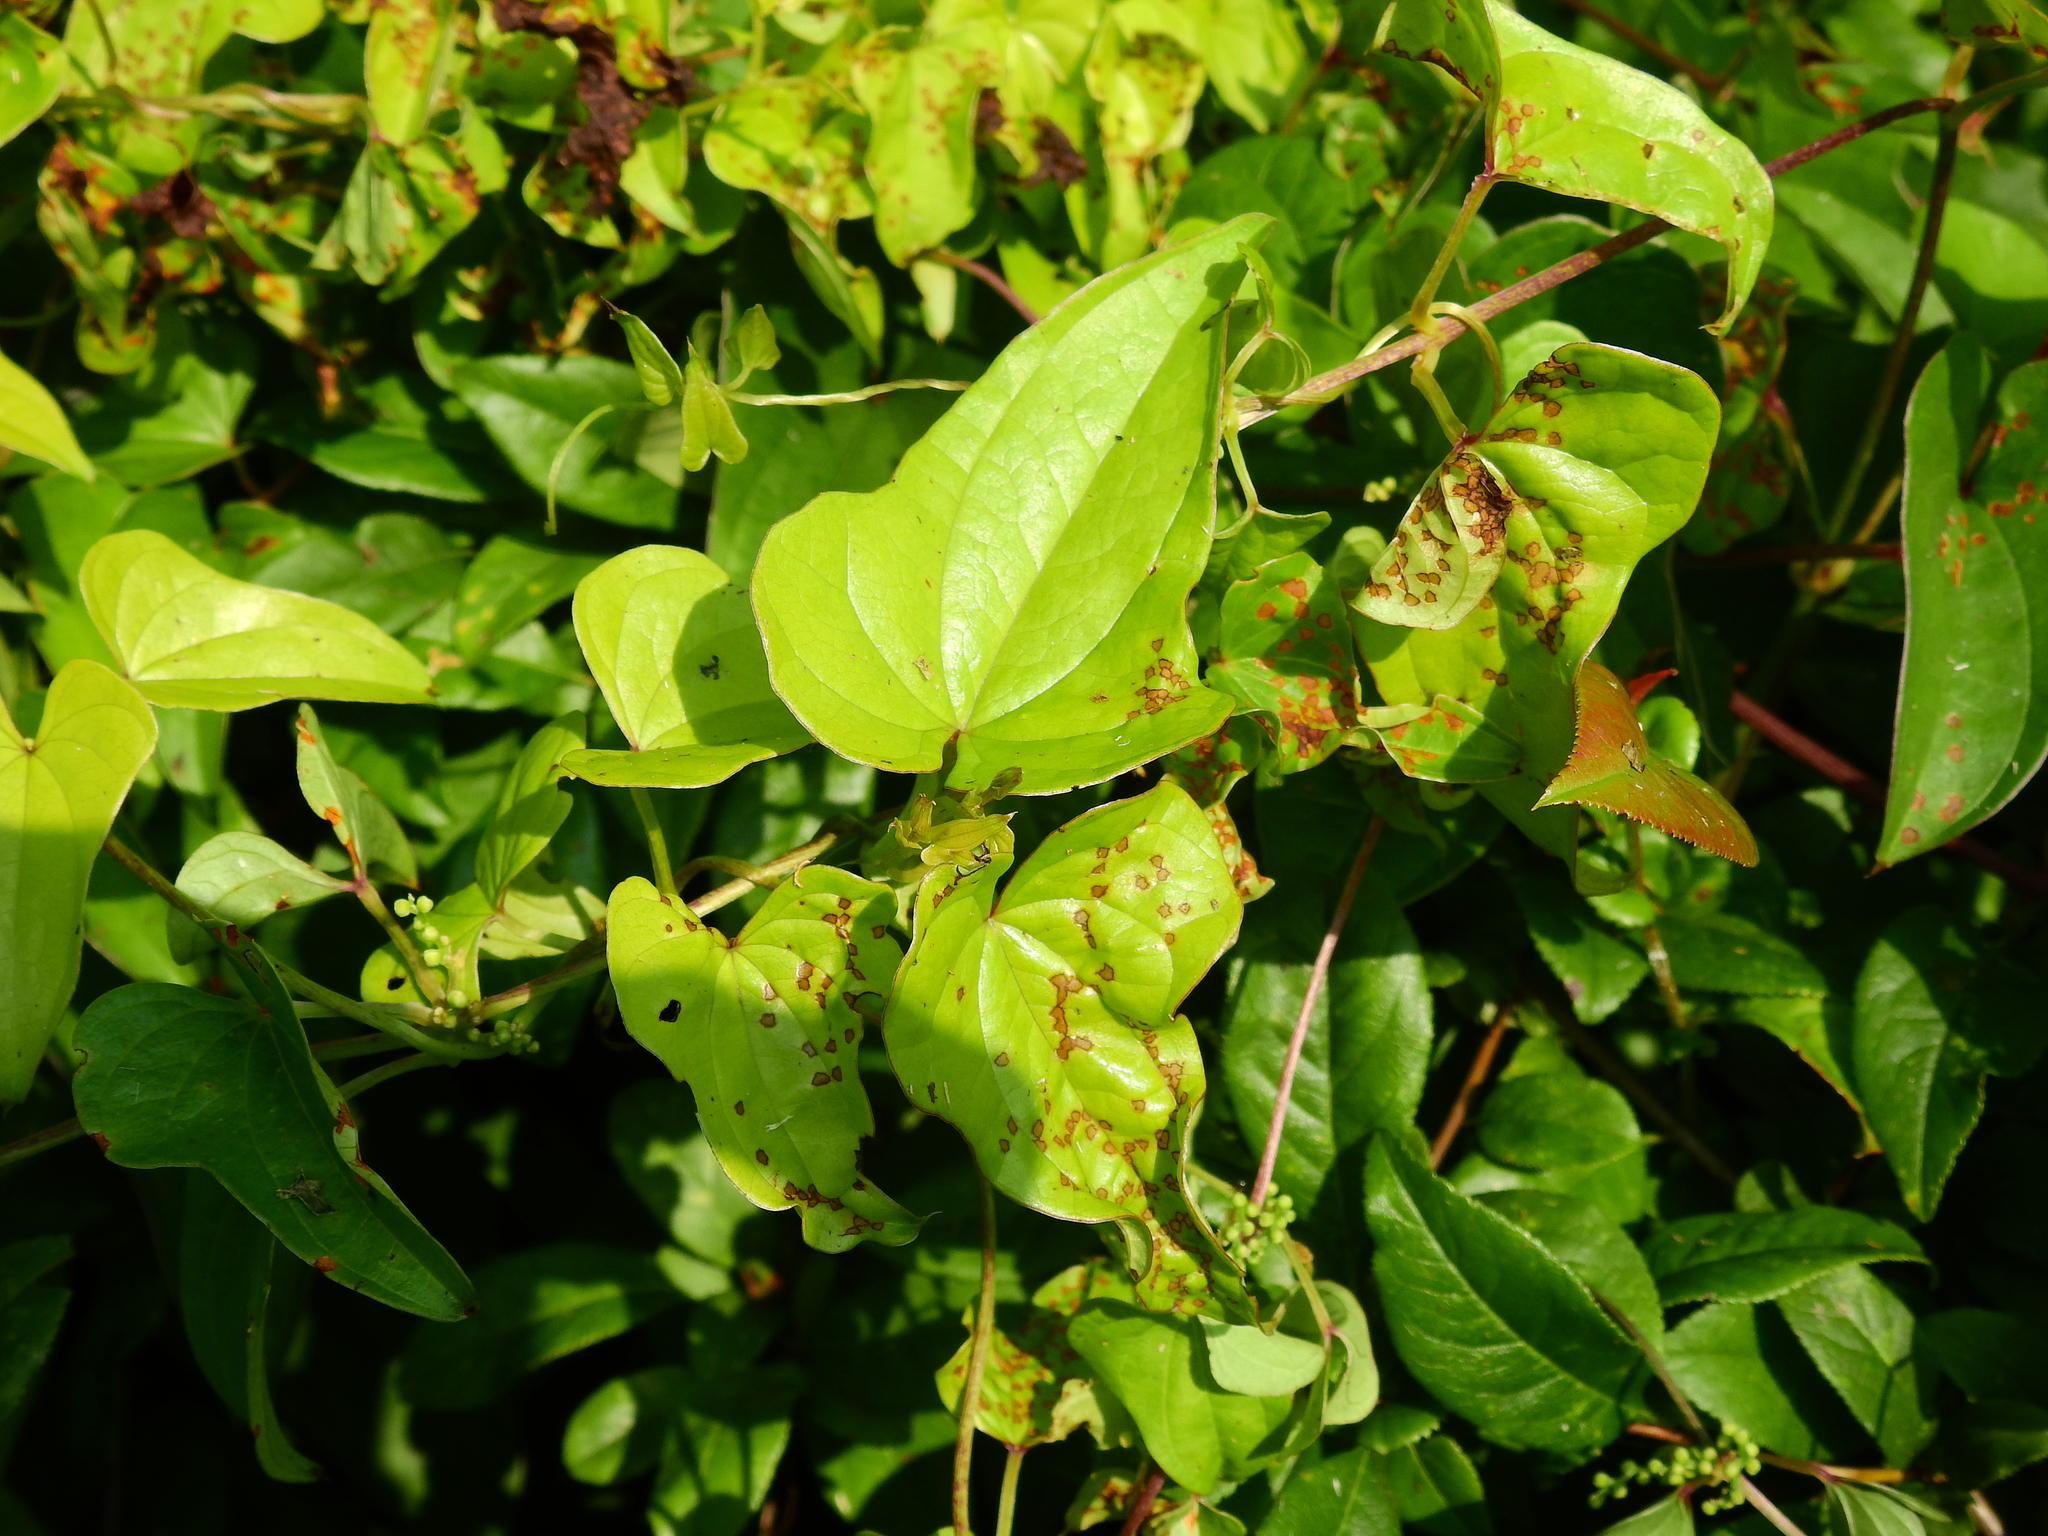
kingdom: Plantae
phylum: Tracheophyta
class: Liliopsida
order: Dioscoreales
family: Dioscoreaceae
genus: Dioscorea
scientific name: Dioscorea polystachya
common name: Chinese yam
